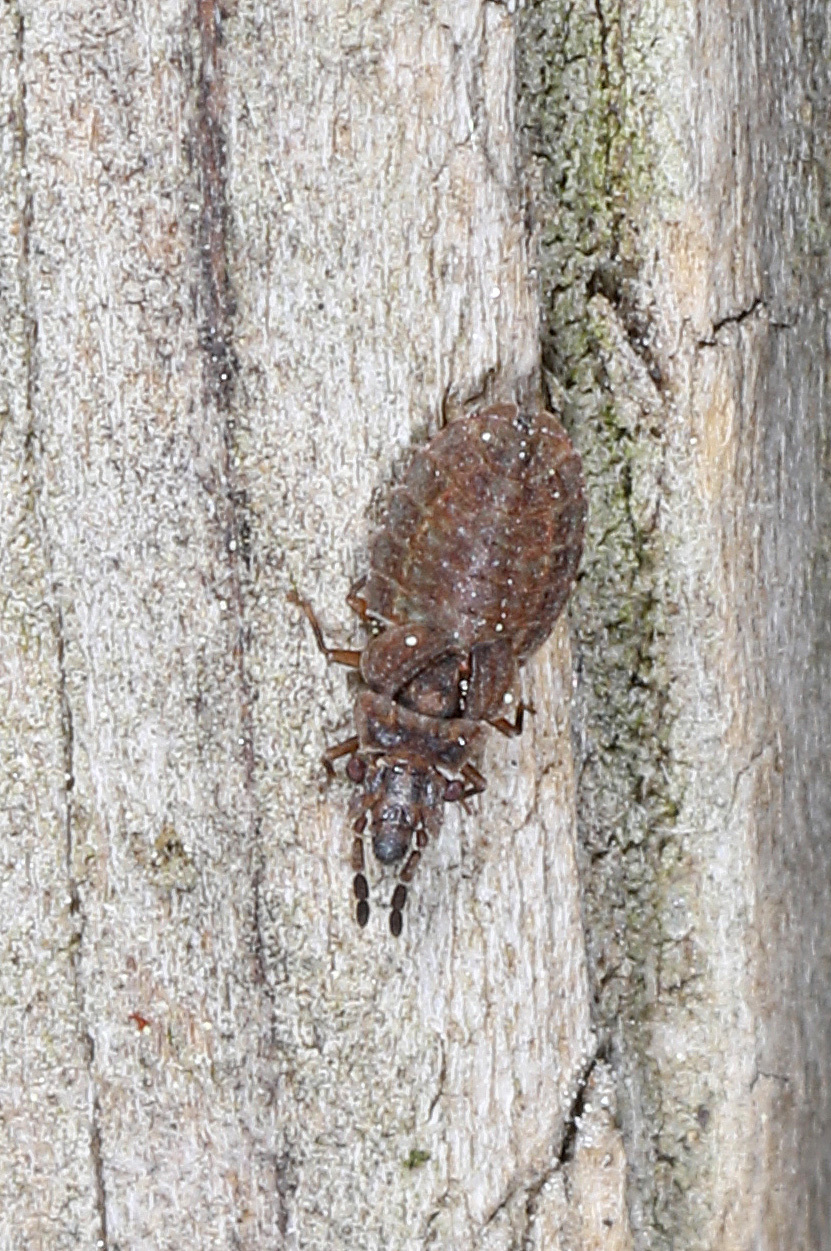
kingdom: Animalia
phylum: Arthropoda
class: Insecta
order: Hemiptera
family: Aradidae
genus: Aradus
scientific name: Aradus kormilevi
